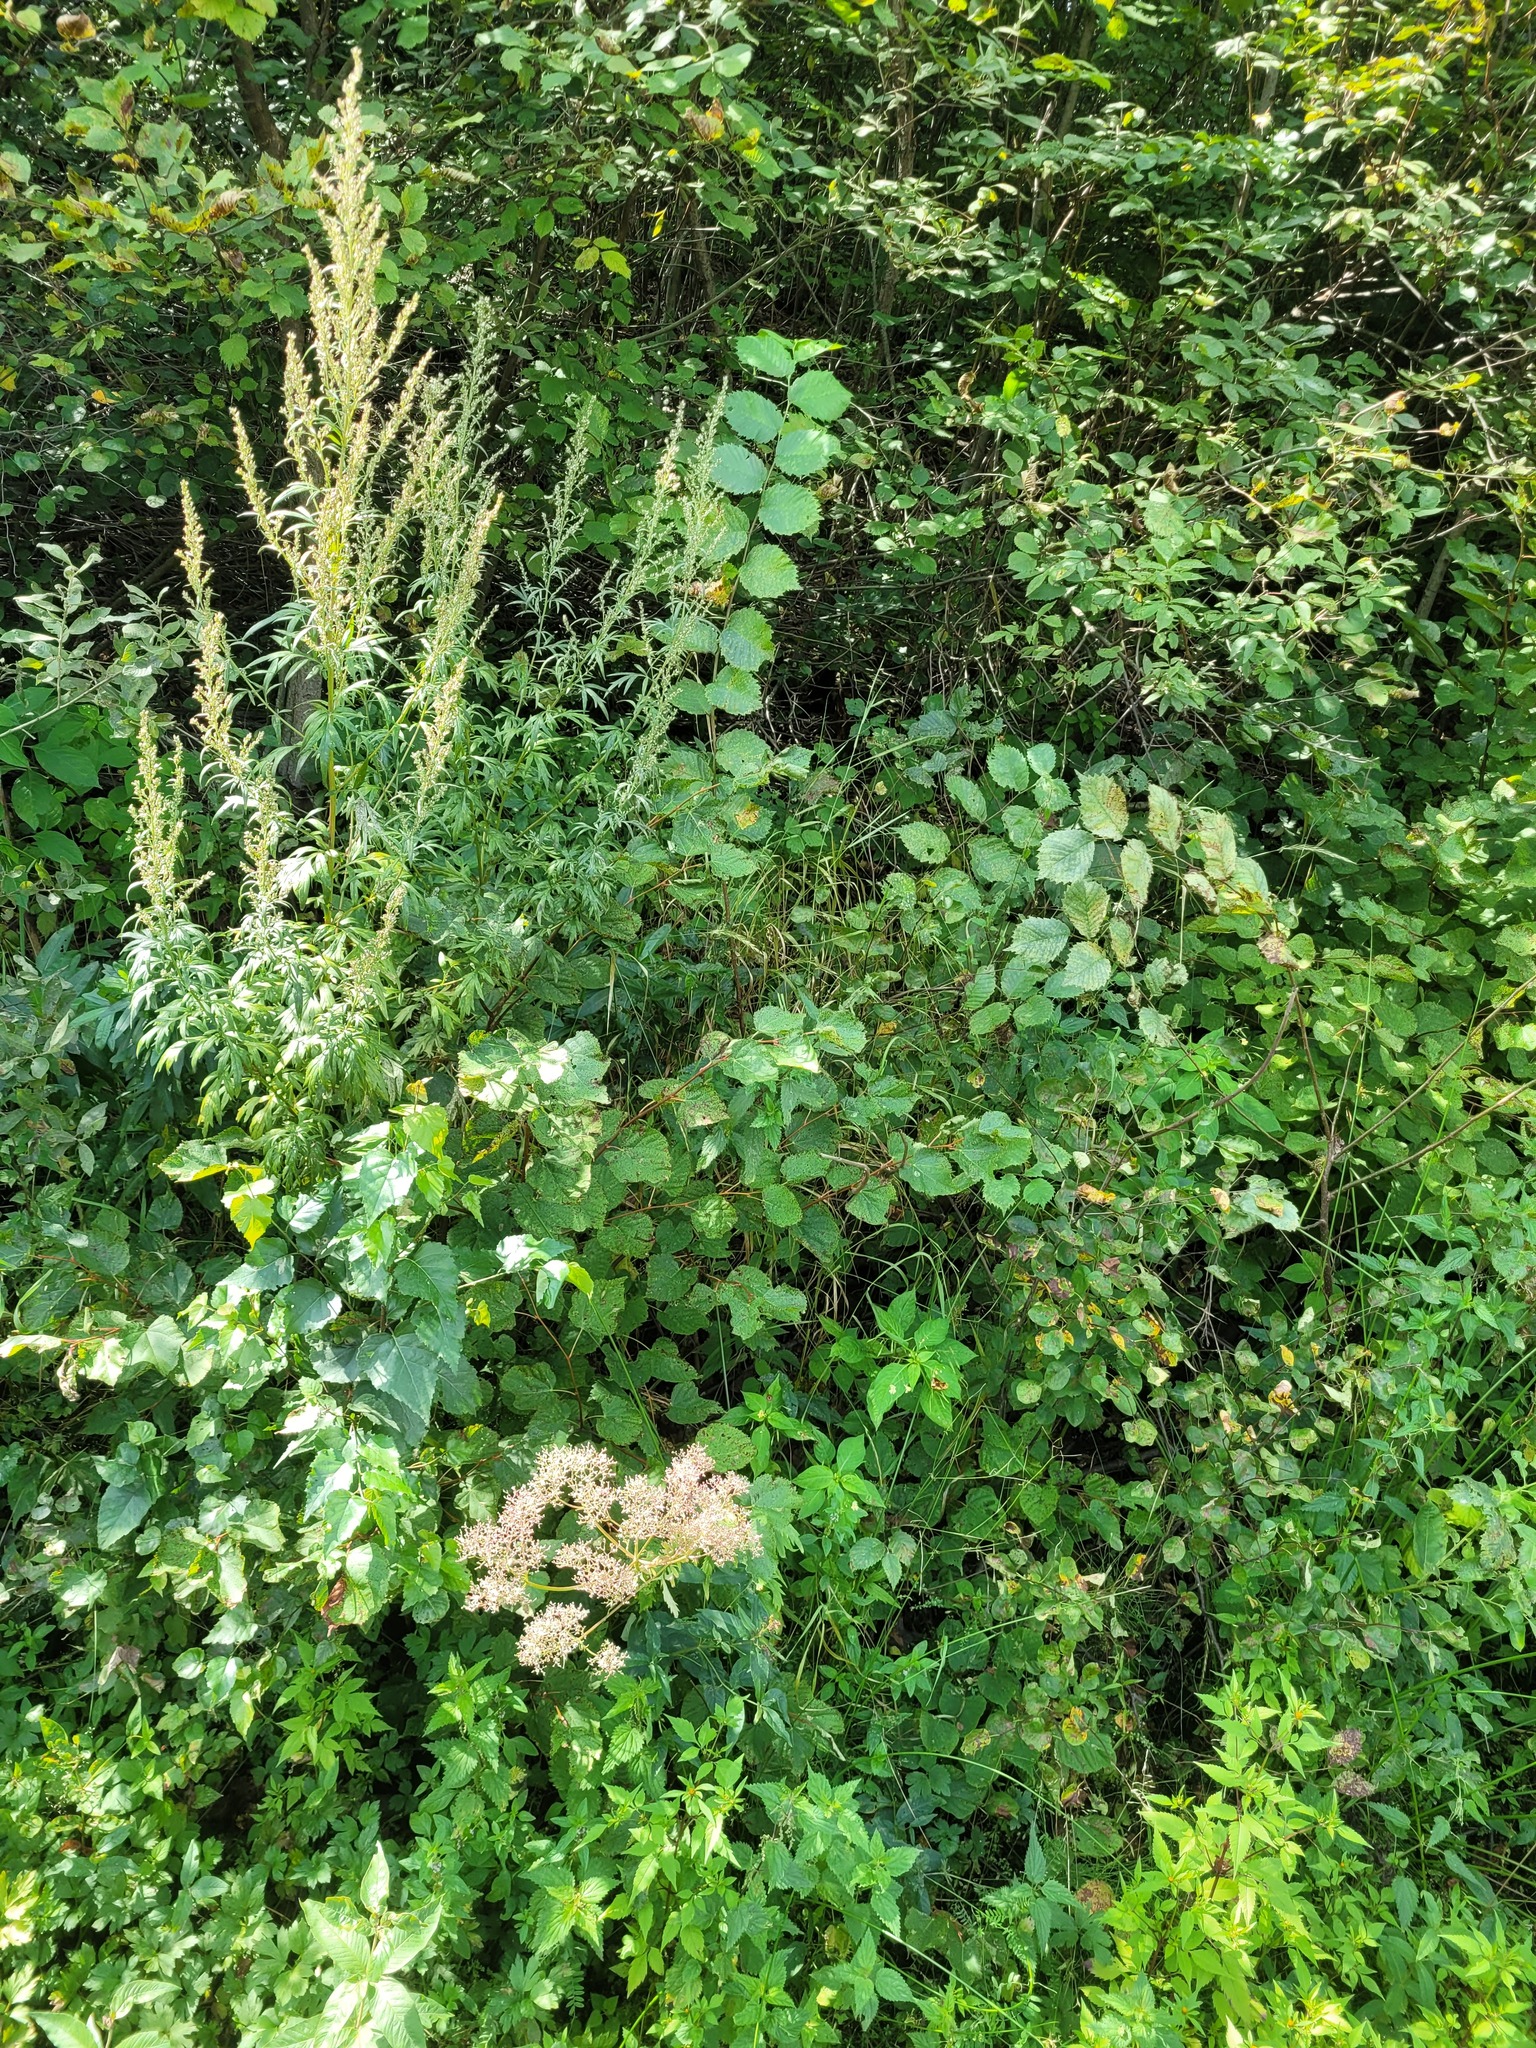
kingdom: Plantae
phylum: Tracheophyta
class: Magnoliopsida
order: Malvales
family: Malvaceae
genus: Tilia
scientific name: Tilia cordata
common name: Small-leaved lime
